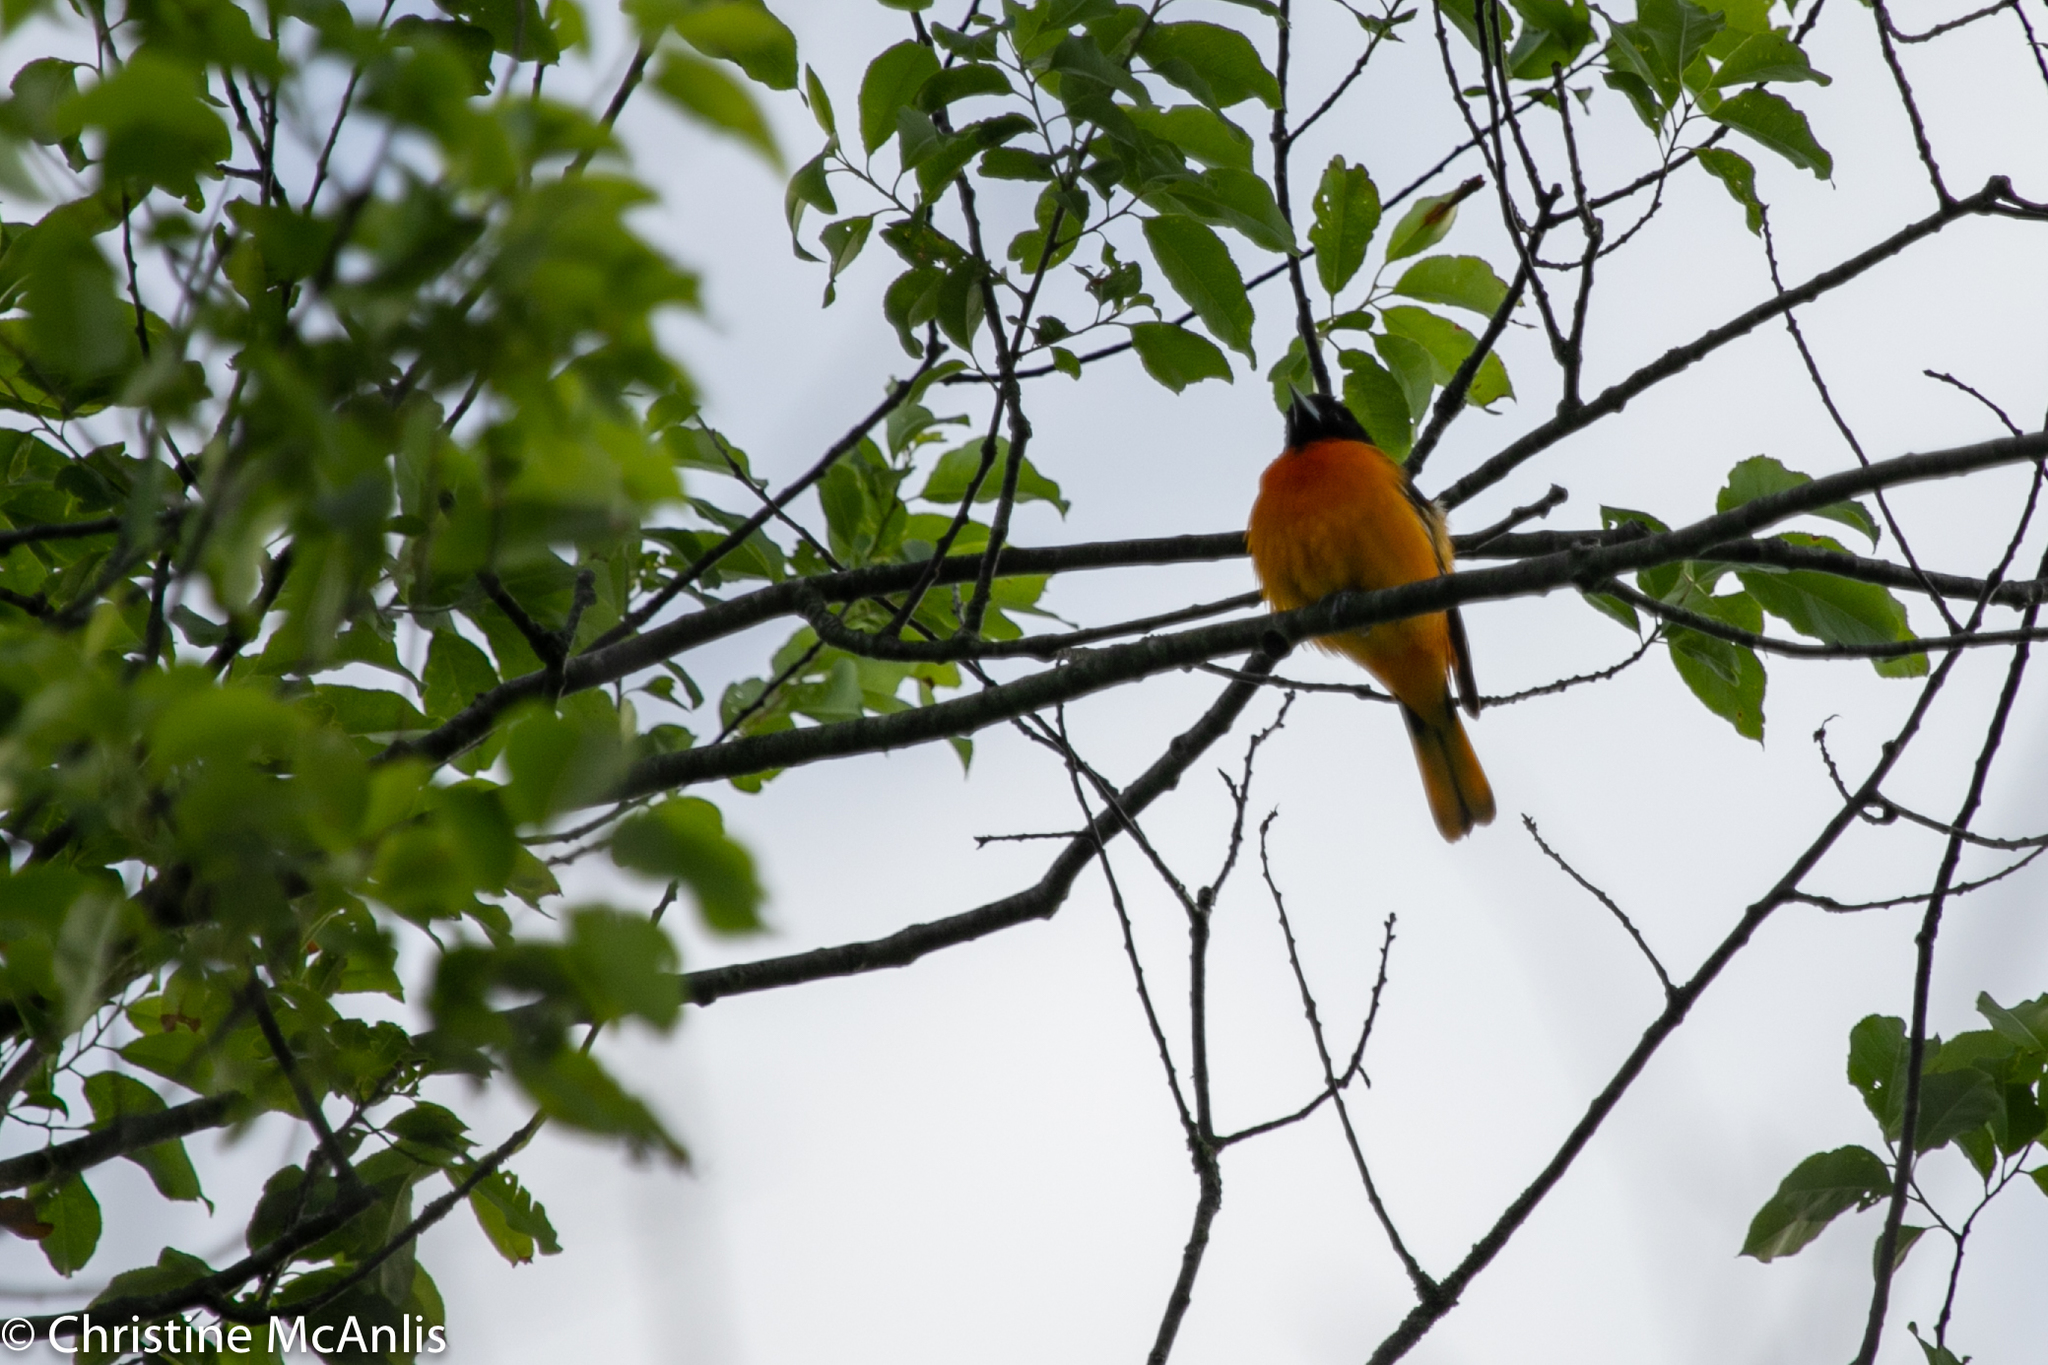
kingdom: Animalia
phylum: Chordata
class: Aves
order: Passeriformes
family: Icteridae
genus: Icterus
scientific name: Icterus galbula
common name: Baltimore oriole
